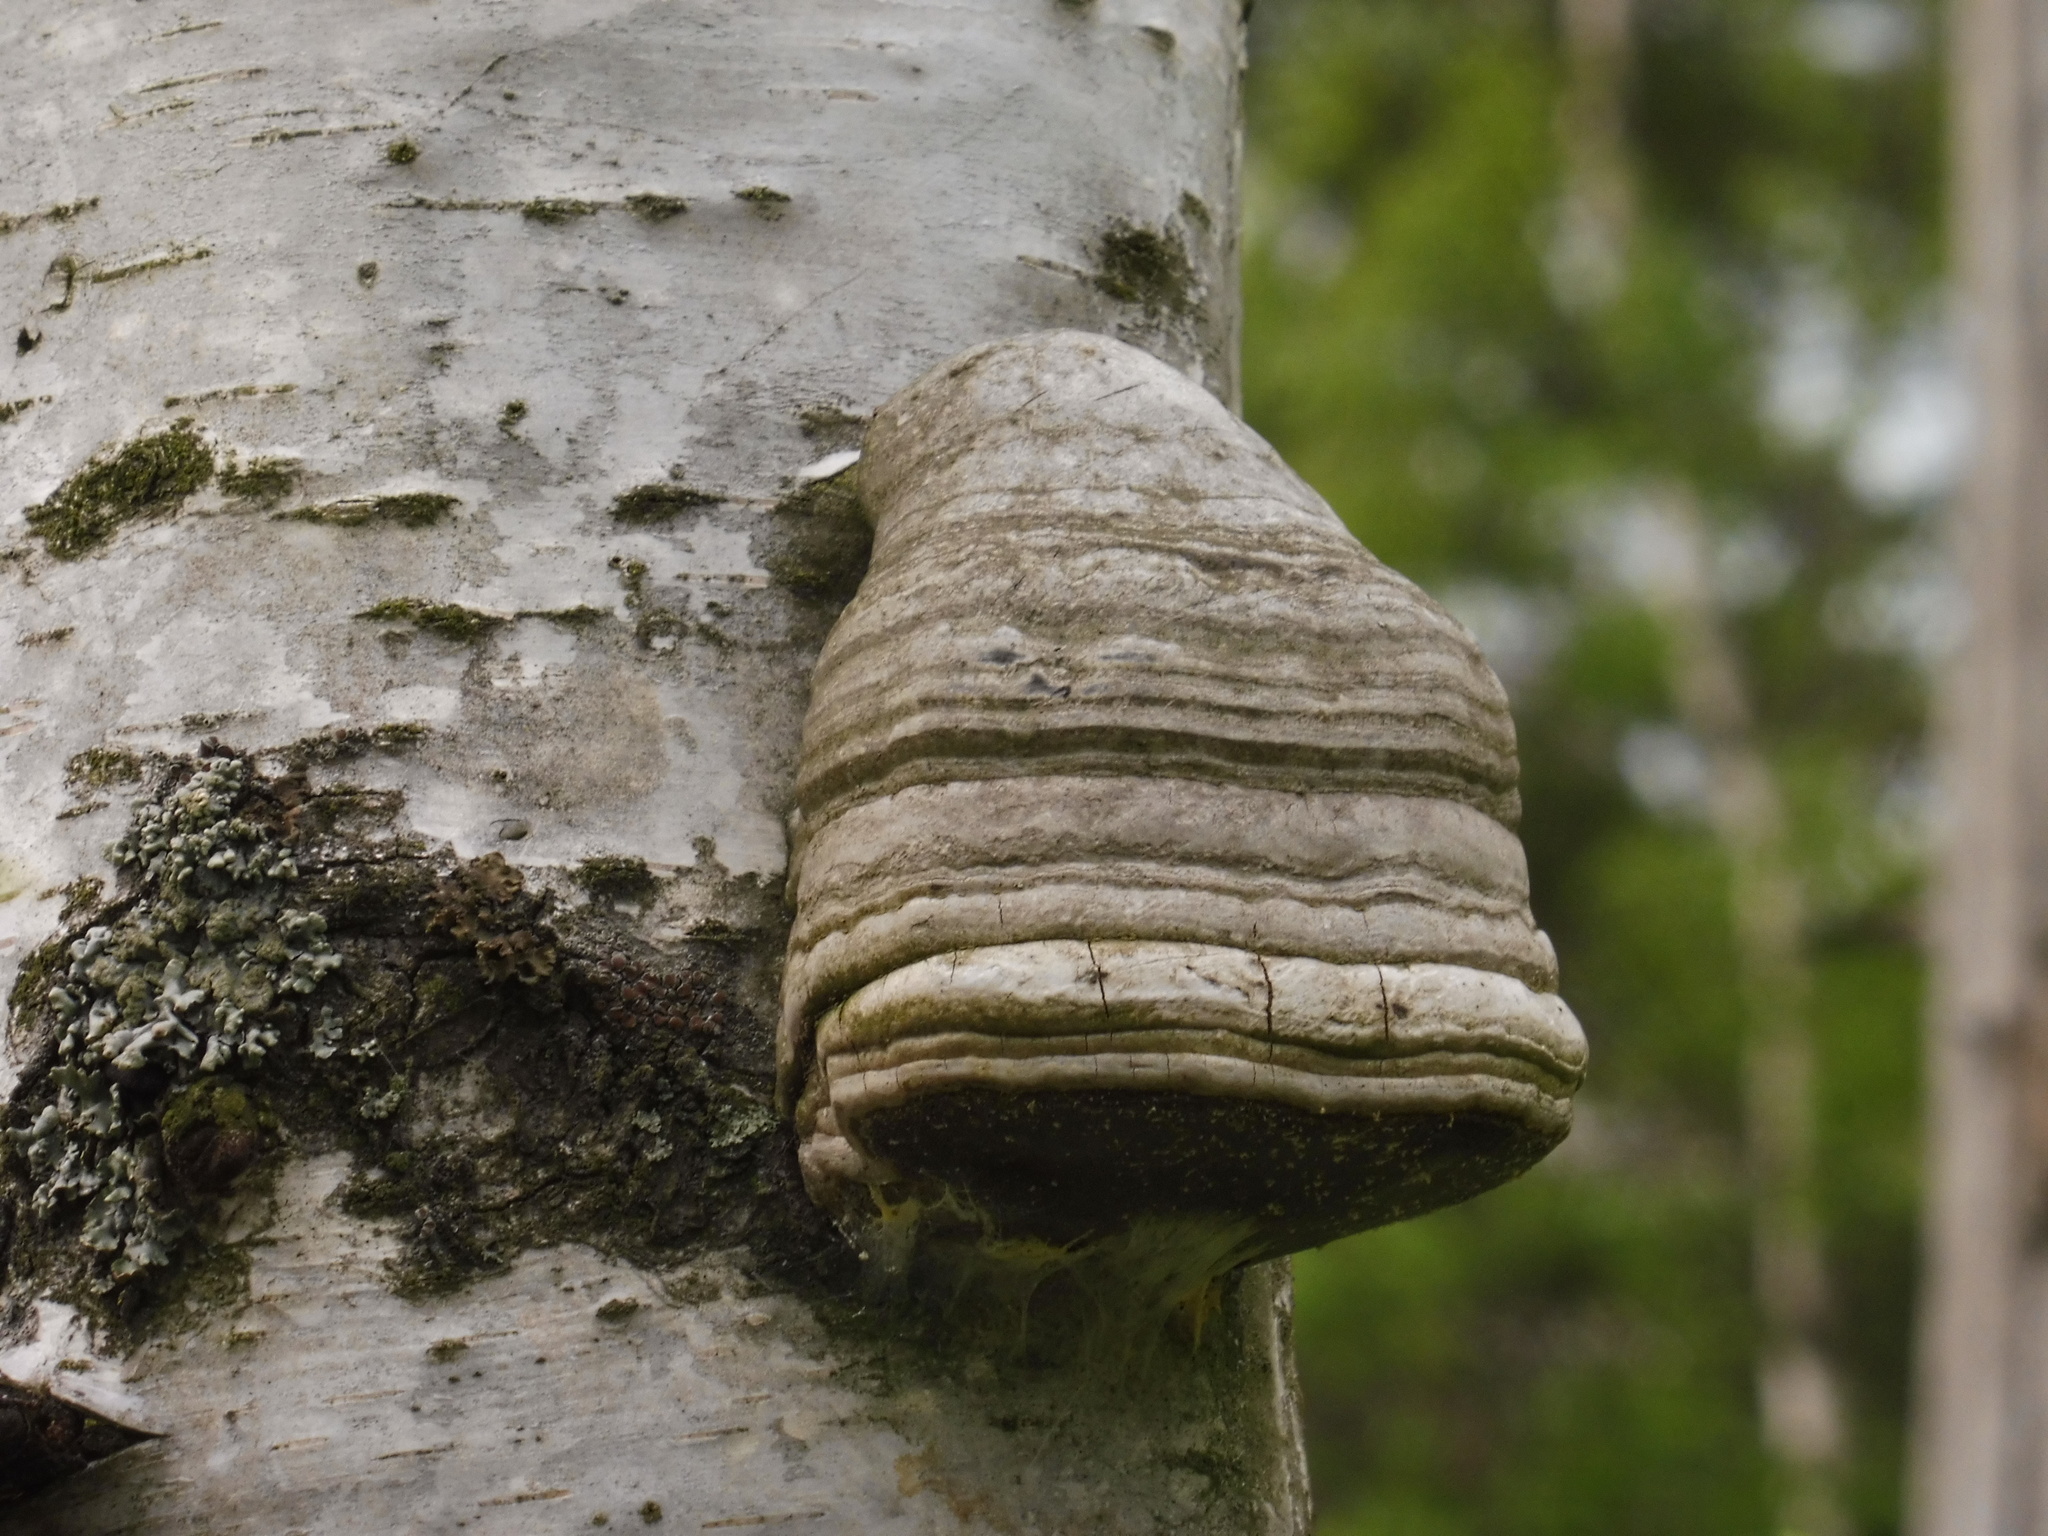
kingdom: Fungi
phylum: Basidiomycota
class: Agaricomycetes
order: Polyporales
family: Polyporaceae
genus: Fomes
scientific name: Fomes fomentarius
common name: Hoof fungus
